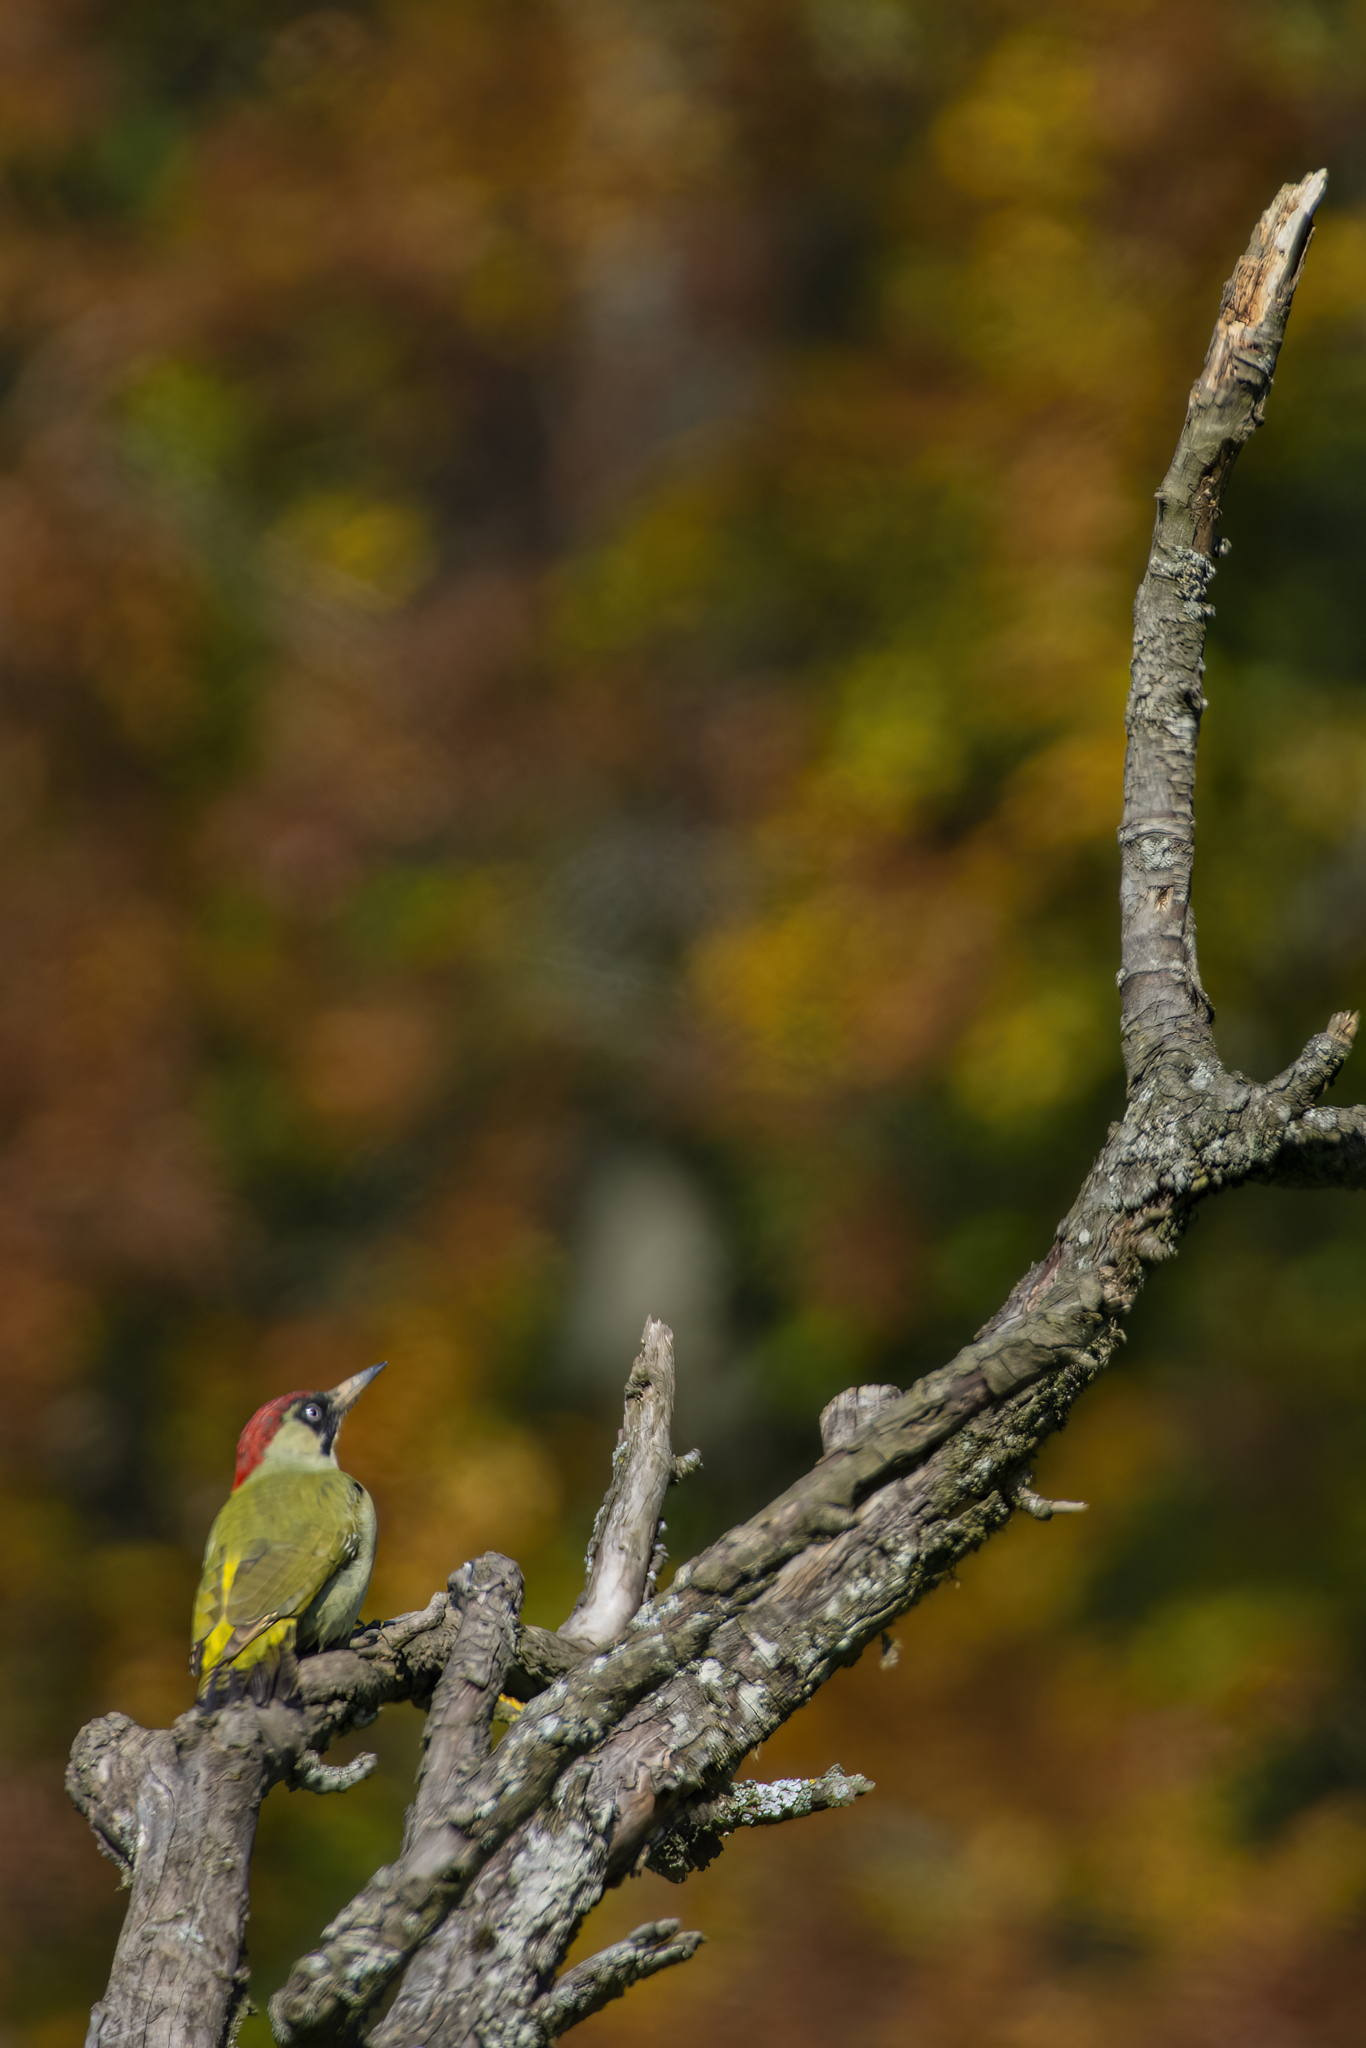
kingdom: Animalia
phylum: Chordata
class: Aves
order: Piciformes
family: Picidae
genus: Picus
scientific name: Picus viridis
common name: European green woodpecker
